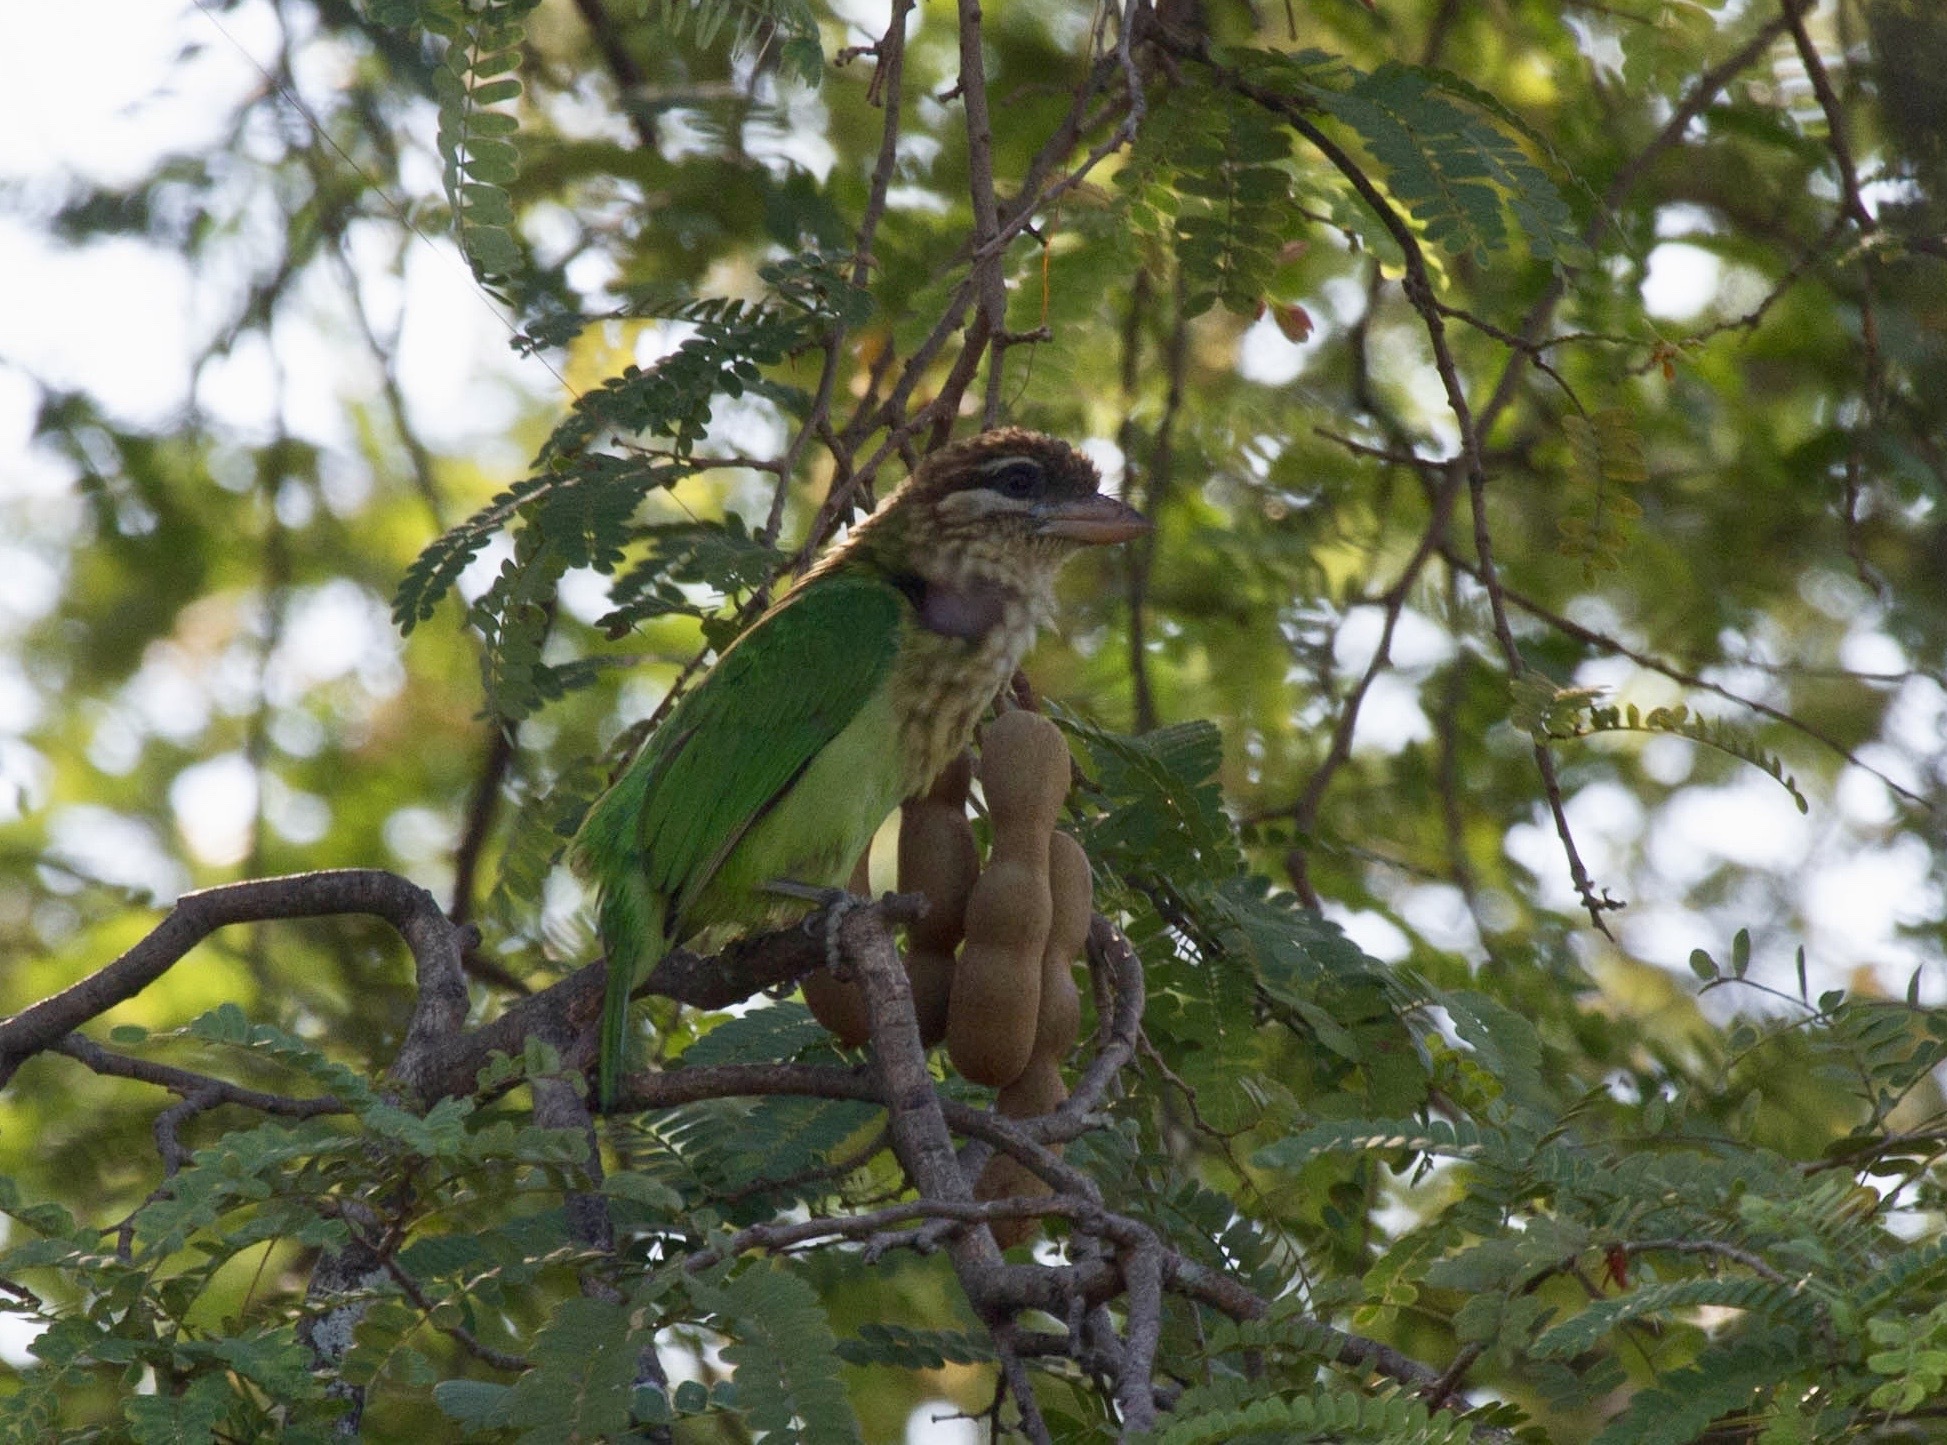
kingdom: Animalia
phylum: Chordata
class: Aves
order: Piciformes
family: Megalaimidae
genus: Psilopogon
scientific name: Psilopogon viridis
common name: White-cheeked barbet
